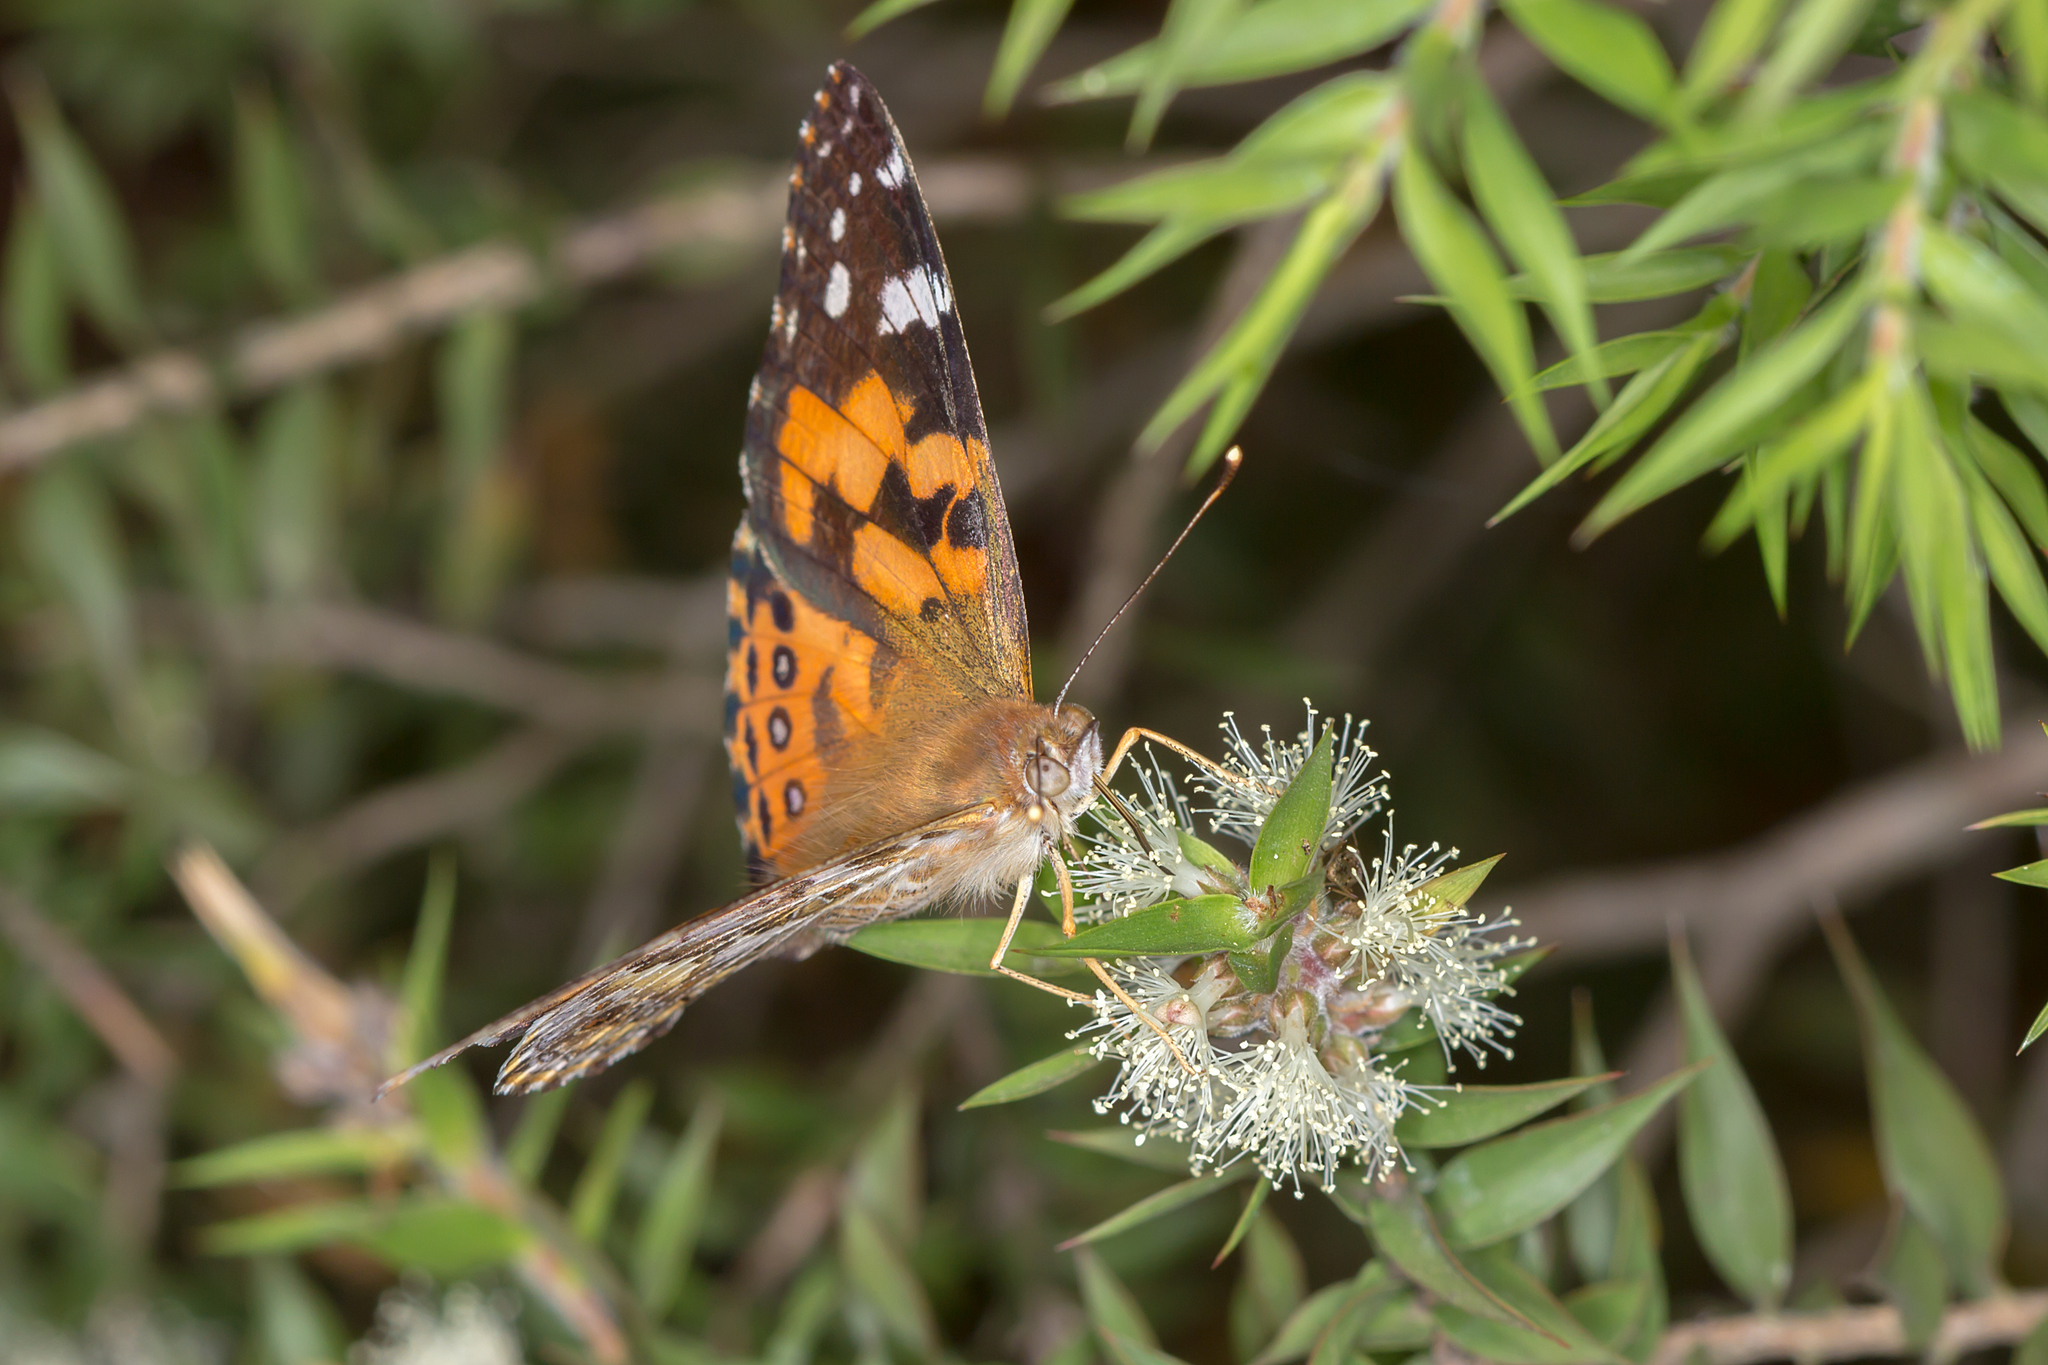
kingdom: Animalia
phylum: Arthropoda
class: Insecta
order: Lepidoptera
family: Nymphalidae
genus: Vanessa
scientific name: Vanessa kershawi
